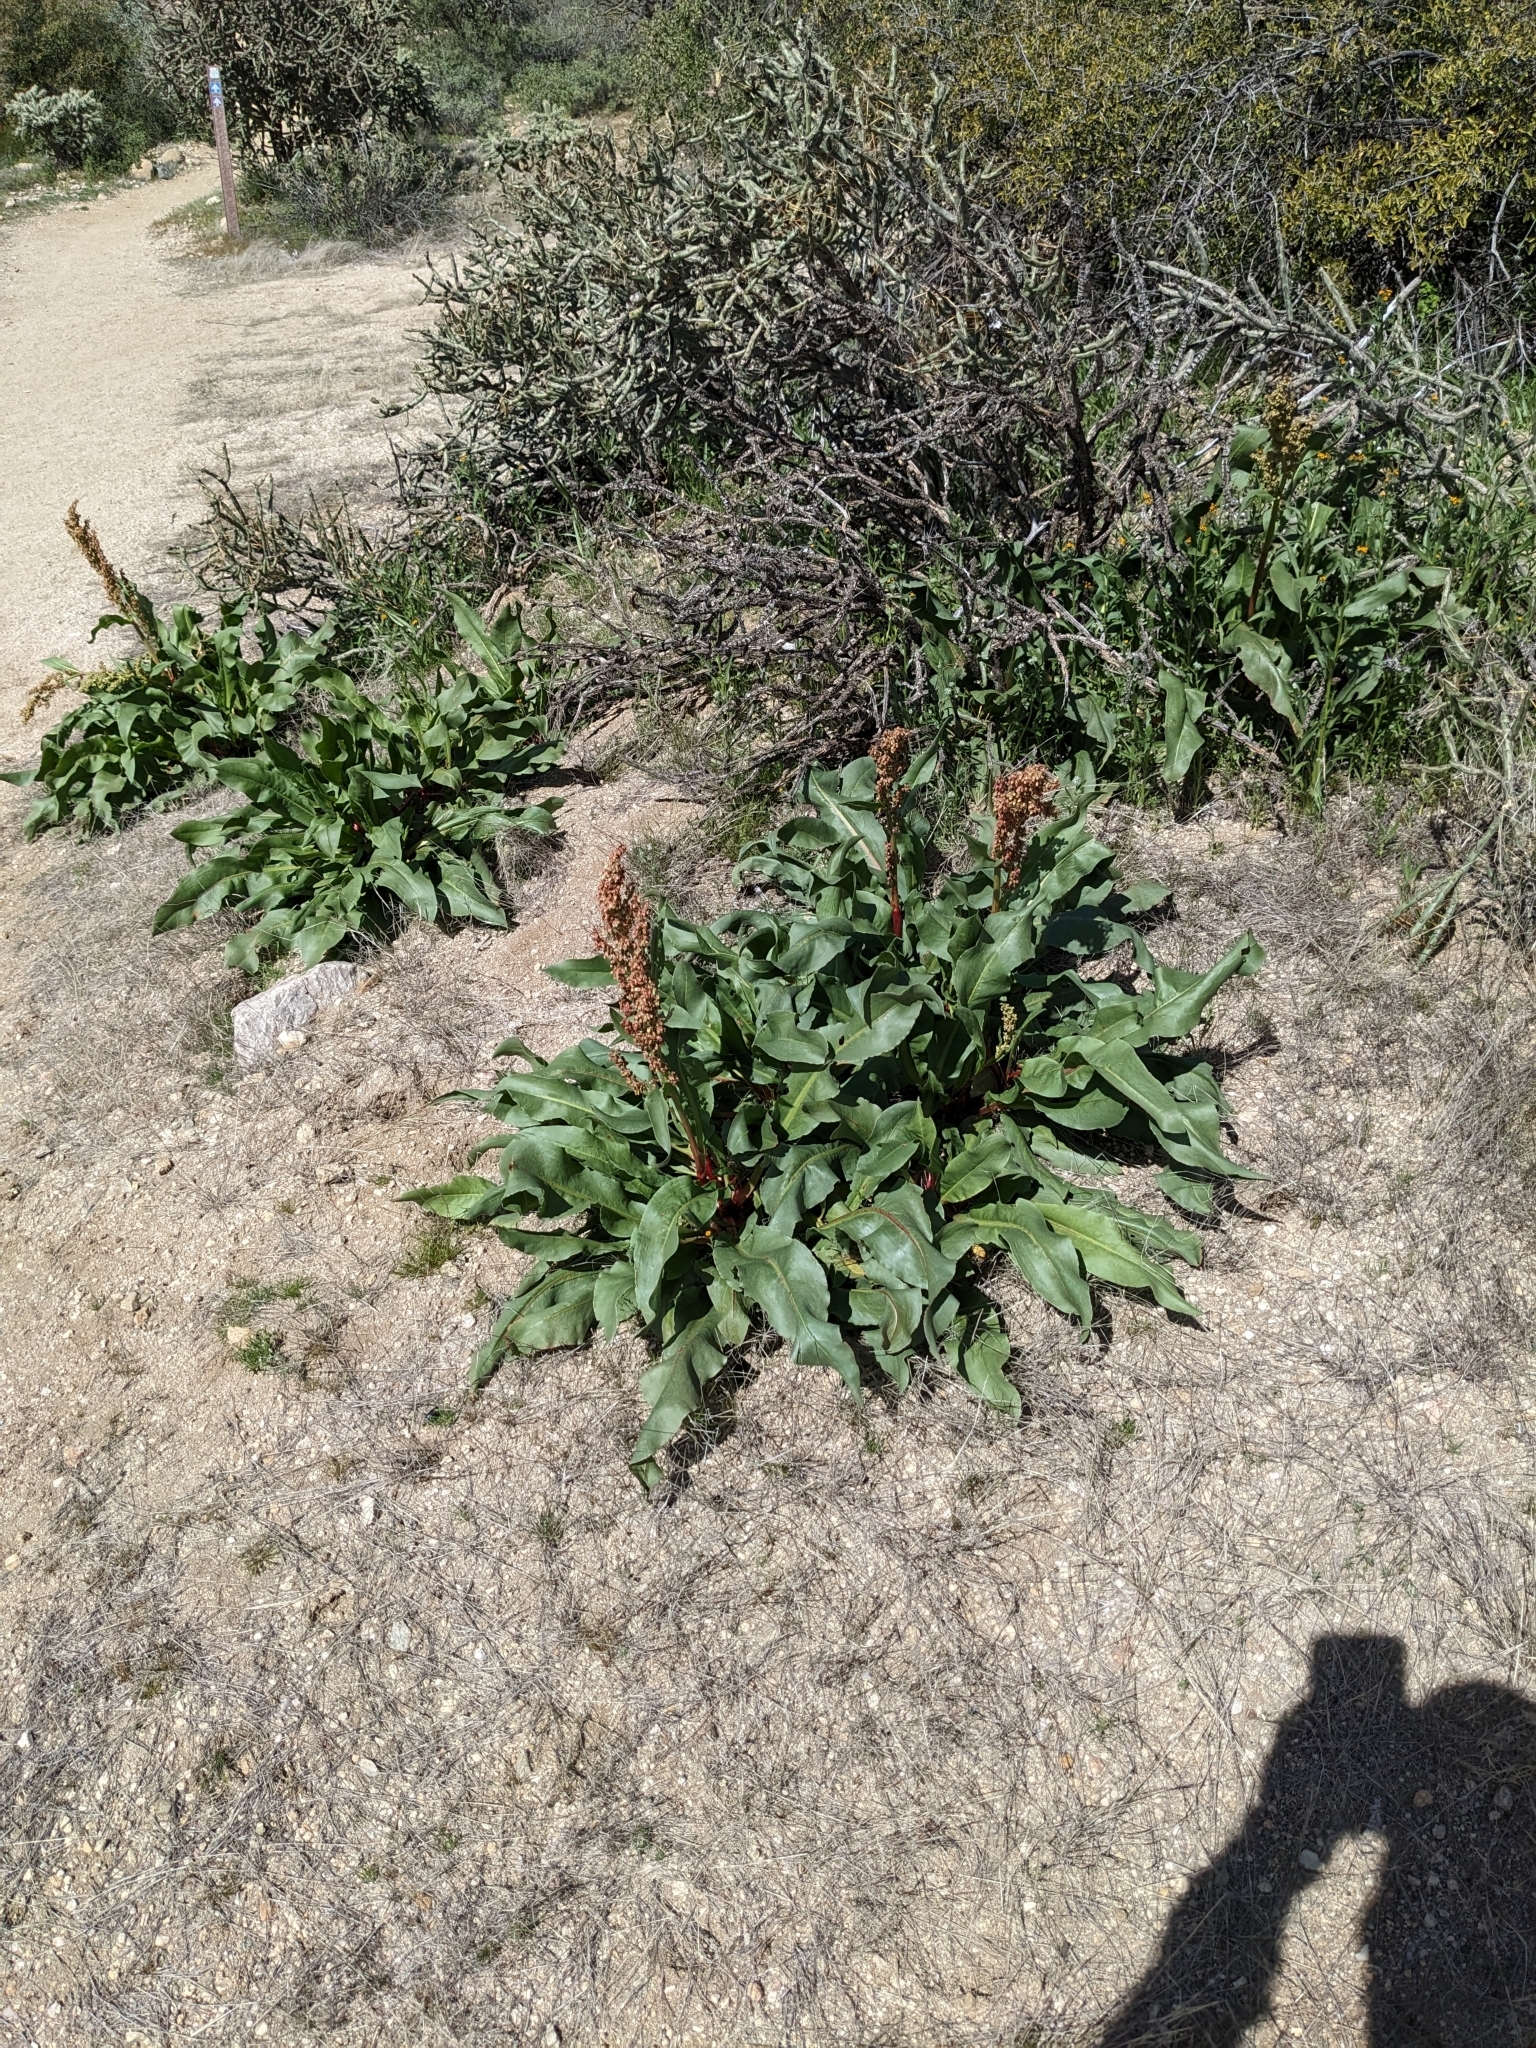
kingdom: Plantae
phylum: Tracheophyta
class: Magnoliopsida
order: Caryophyllales
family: Polygonaceae
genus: Rumex
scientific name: Rumex hymenosepalus
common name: Ganagra
